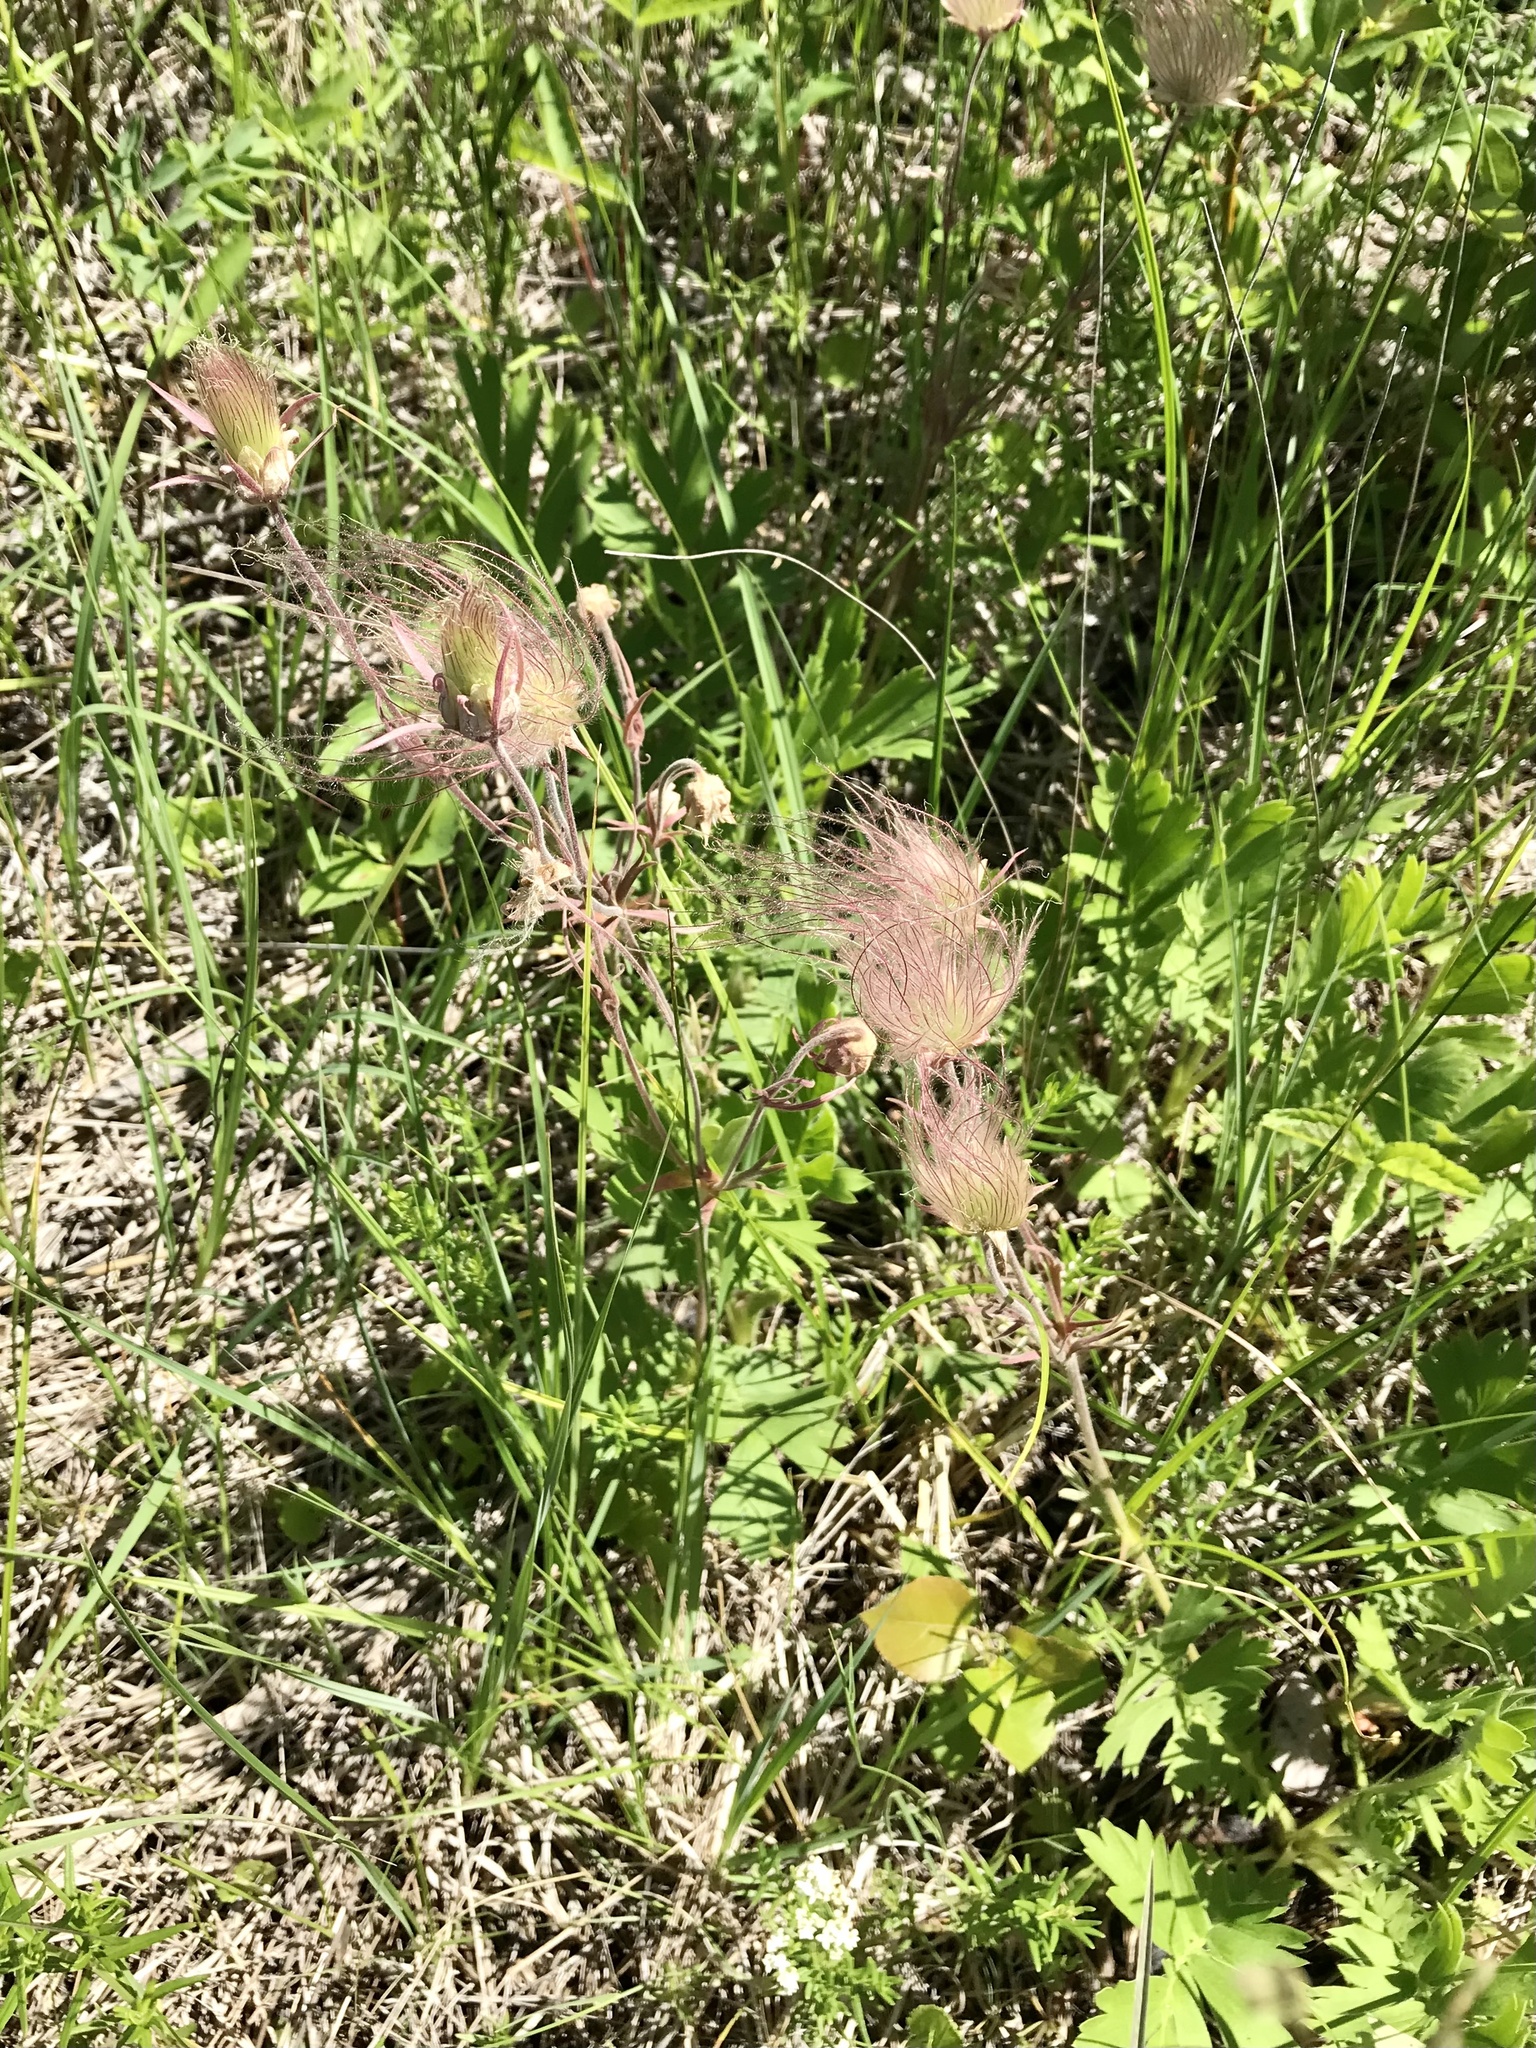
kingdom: Plantae
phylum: Tracheophyta
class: Magnoliopsida
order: Rosales
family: Rosaceae
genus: Geum
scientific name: Geum triflorum
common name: Old man's whiskers
